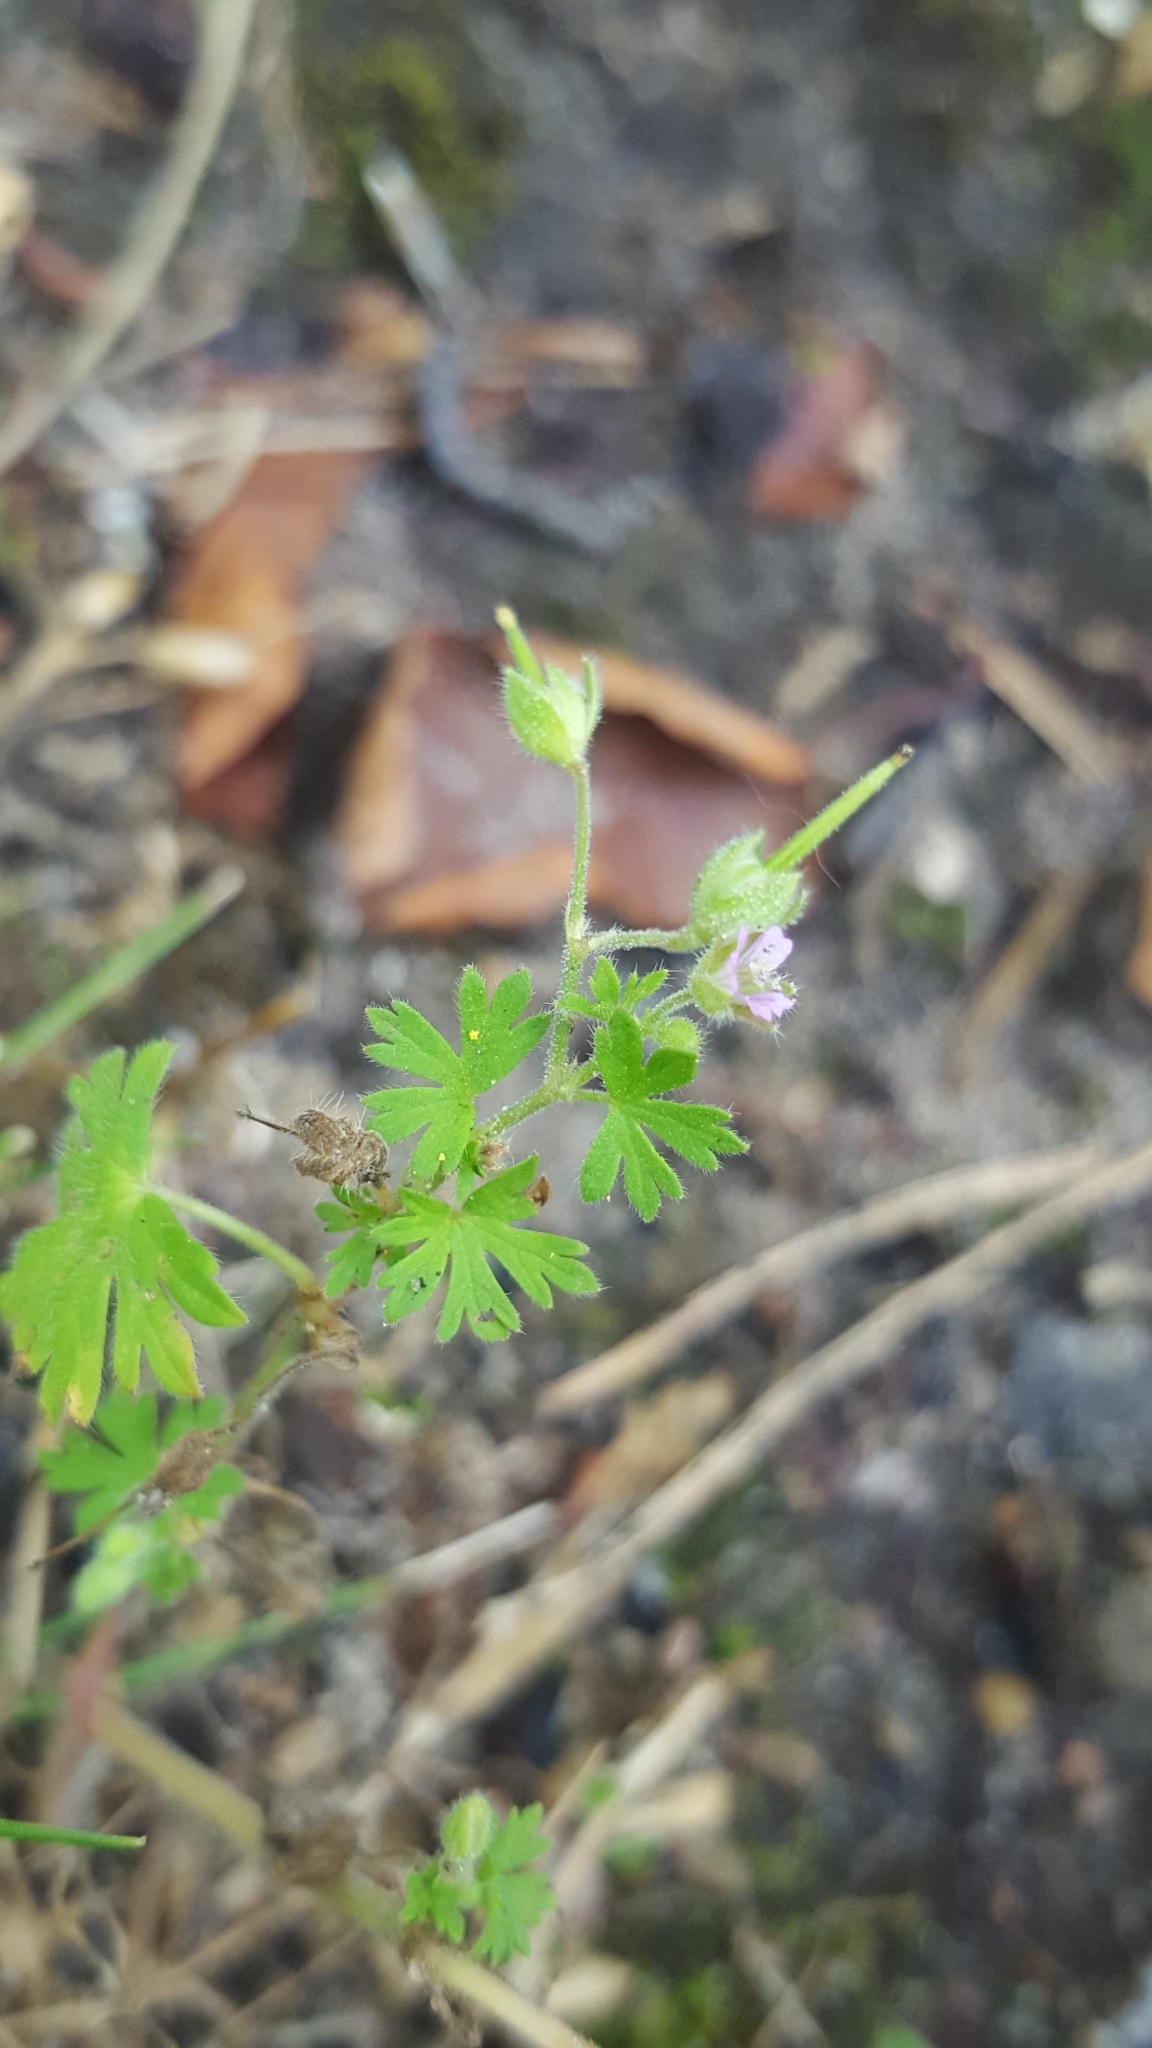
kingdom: Plantae
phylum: Tracheophyta
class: Magnoliopsida
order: Geraniales
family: Geraniaceae
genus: Geranium
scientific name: Geranium pusillum
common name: Small geranium
